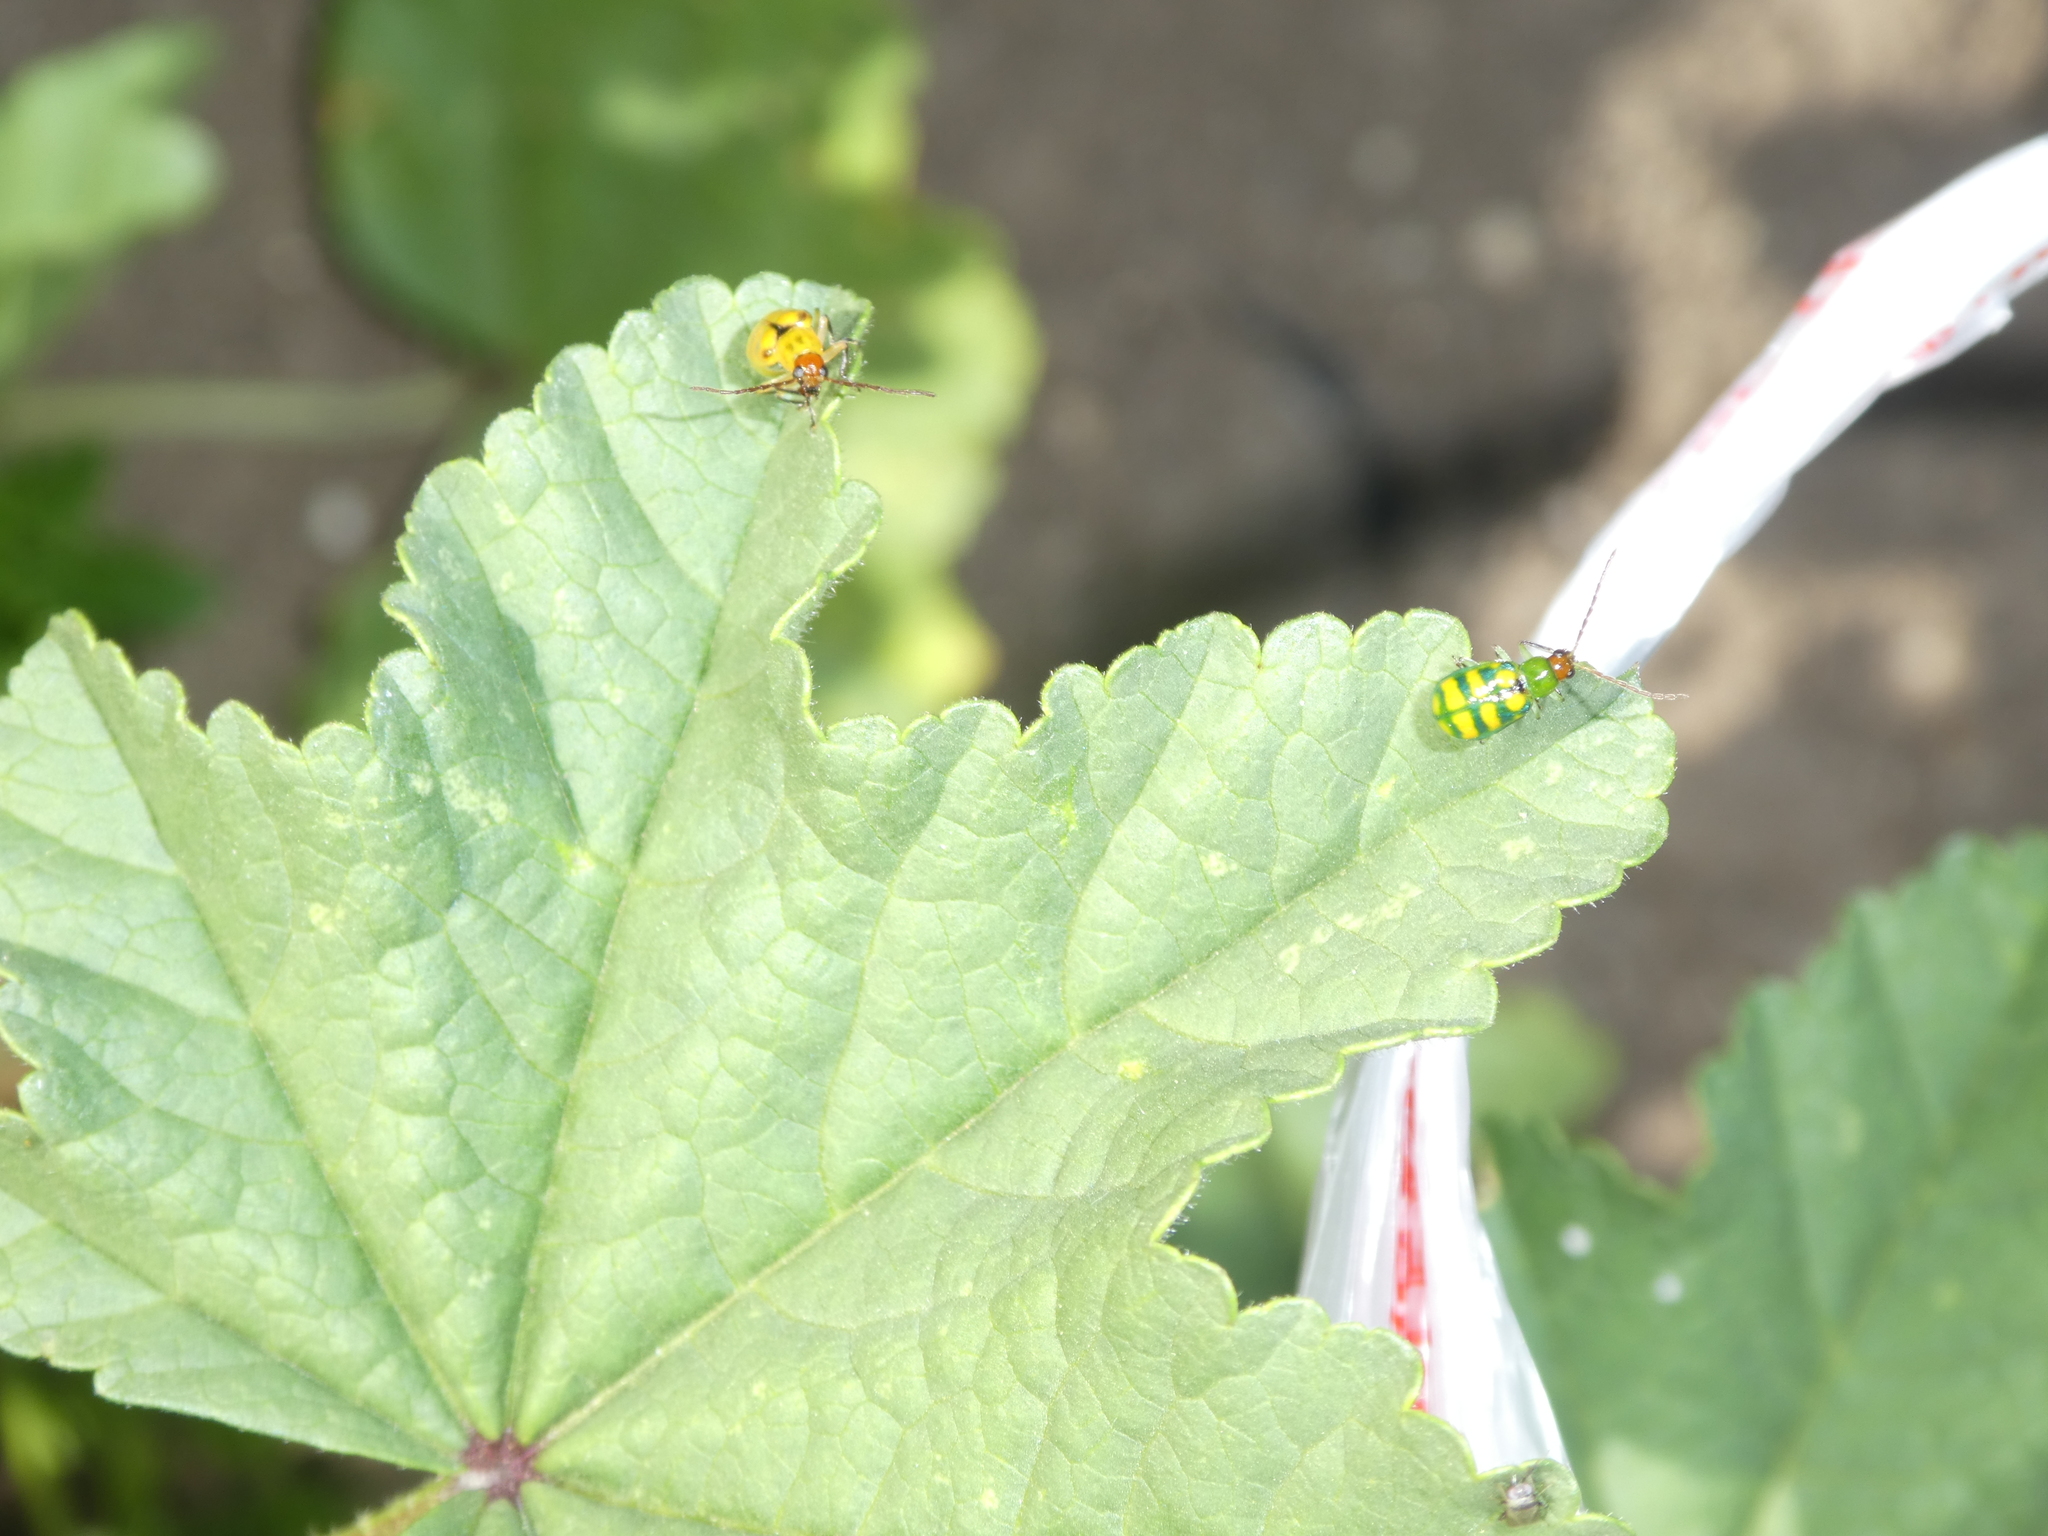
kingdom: Animalia
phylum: Arthropoda
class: Insecta
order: Coleoptera
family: Chrysomelidae
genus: Diabrotica
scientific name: Diabrotica balteata
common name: Leaf beetle
